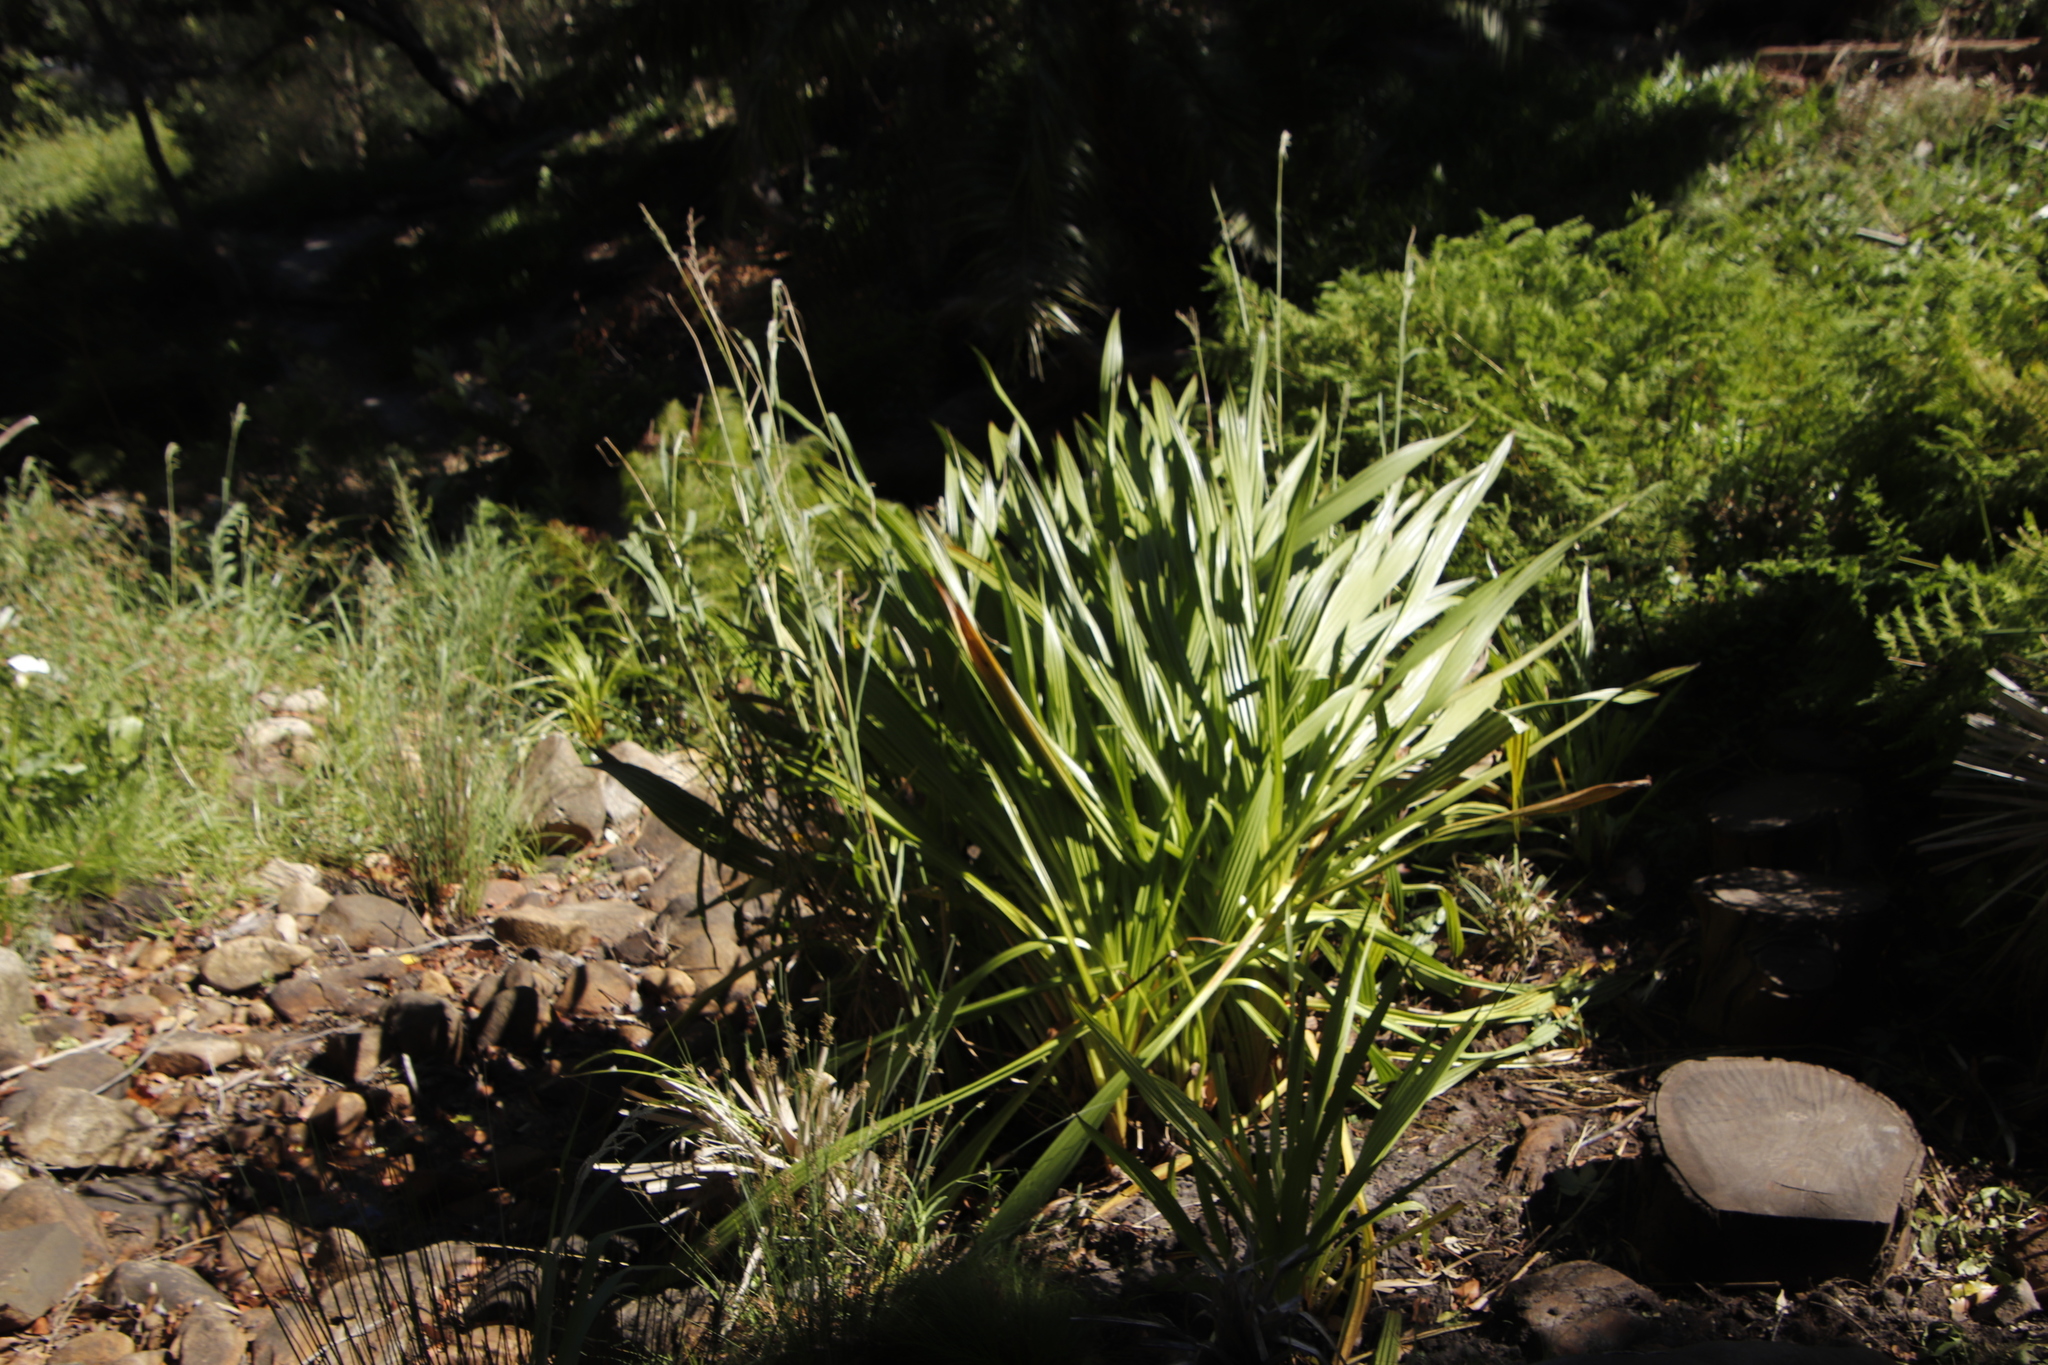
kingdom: Plantae
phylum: Tracheophyta
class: Liliopsida
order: Commelinales
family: Haemodoraceae
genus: Wachendorfia
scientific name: Wachendorfia thyrsiflora
